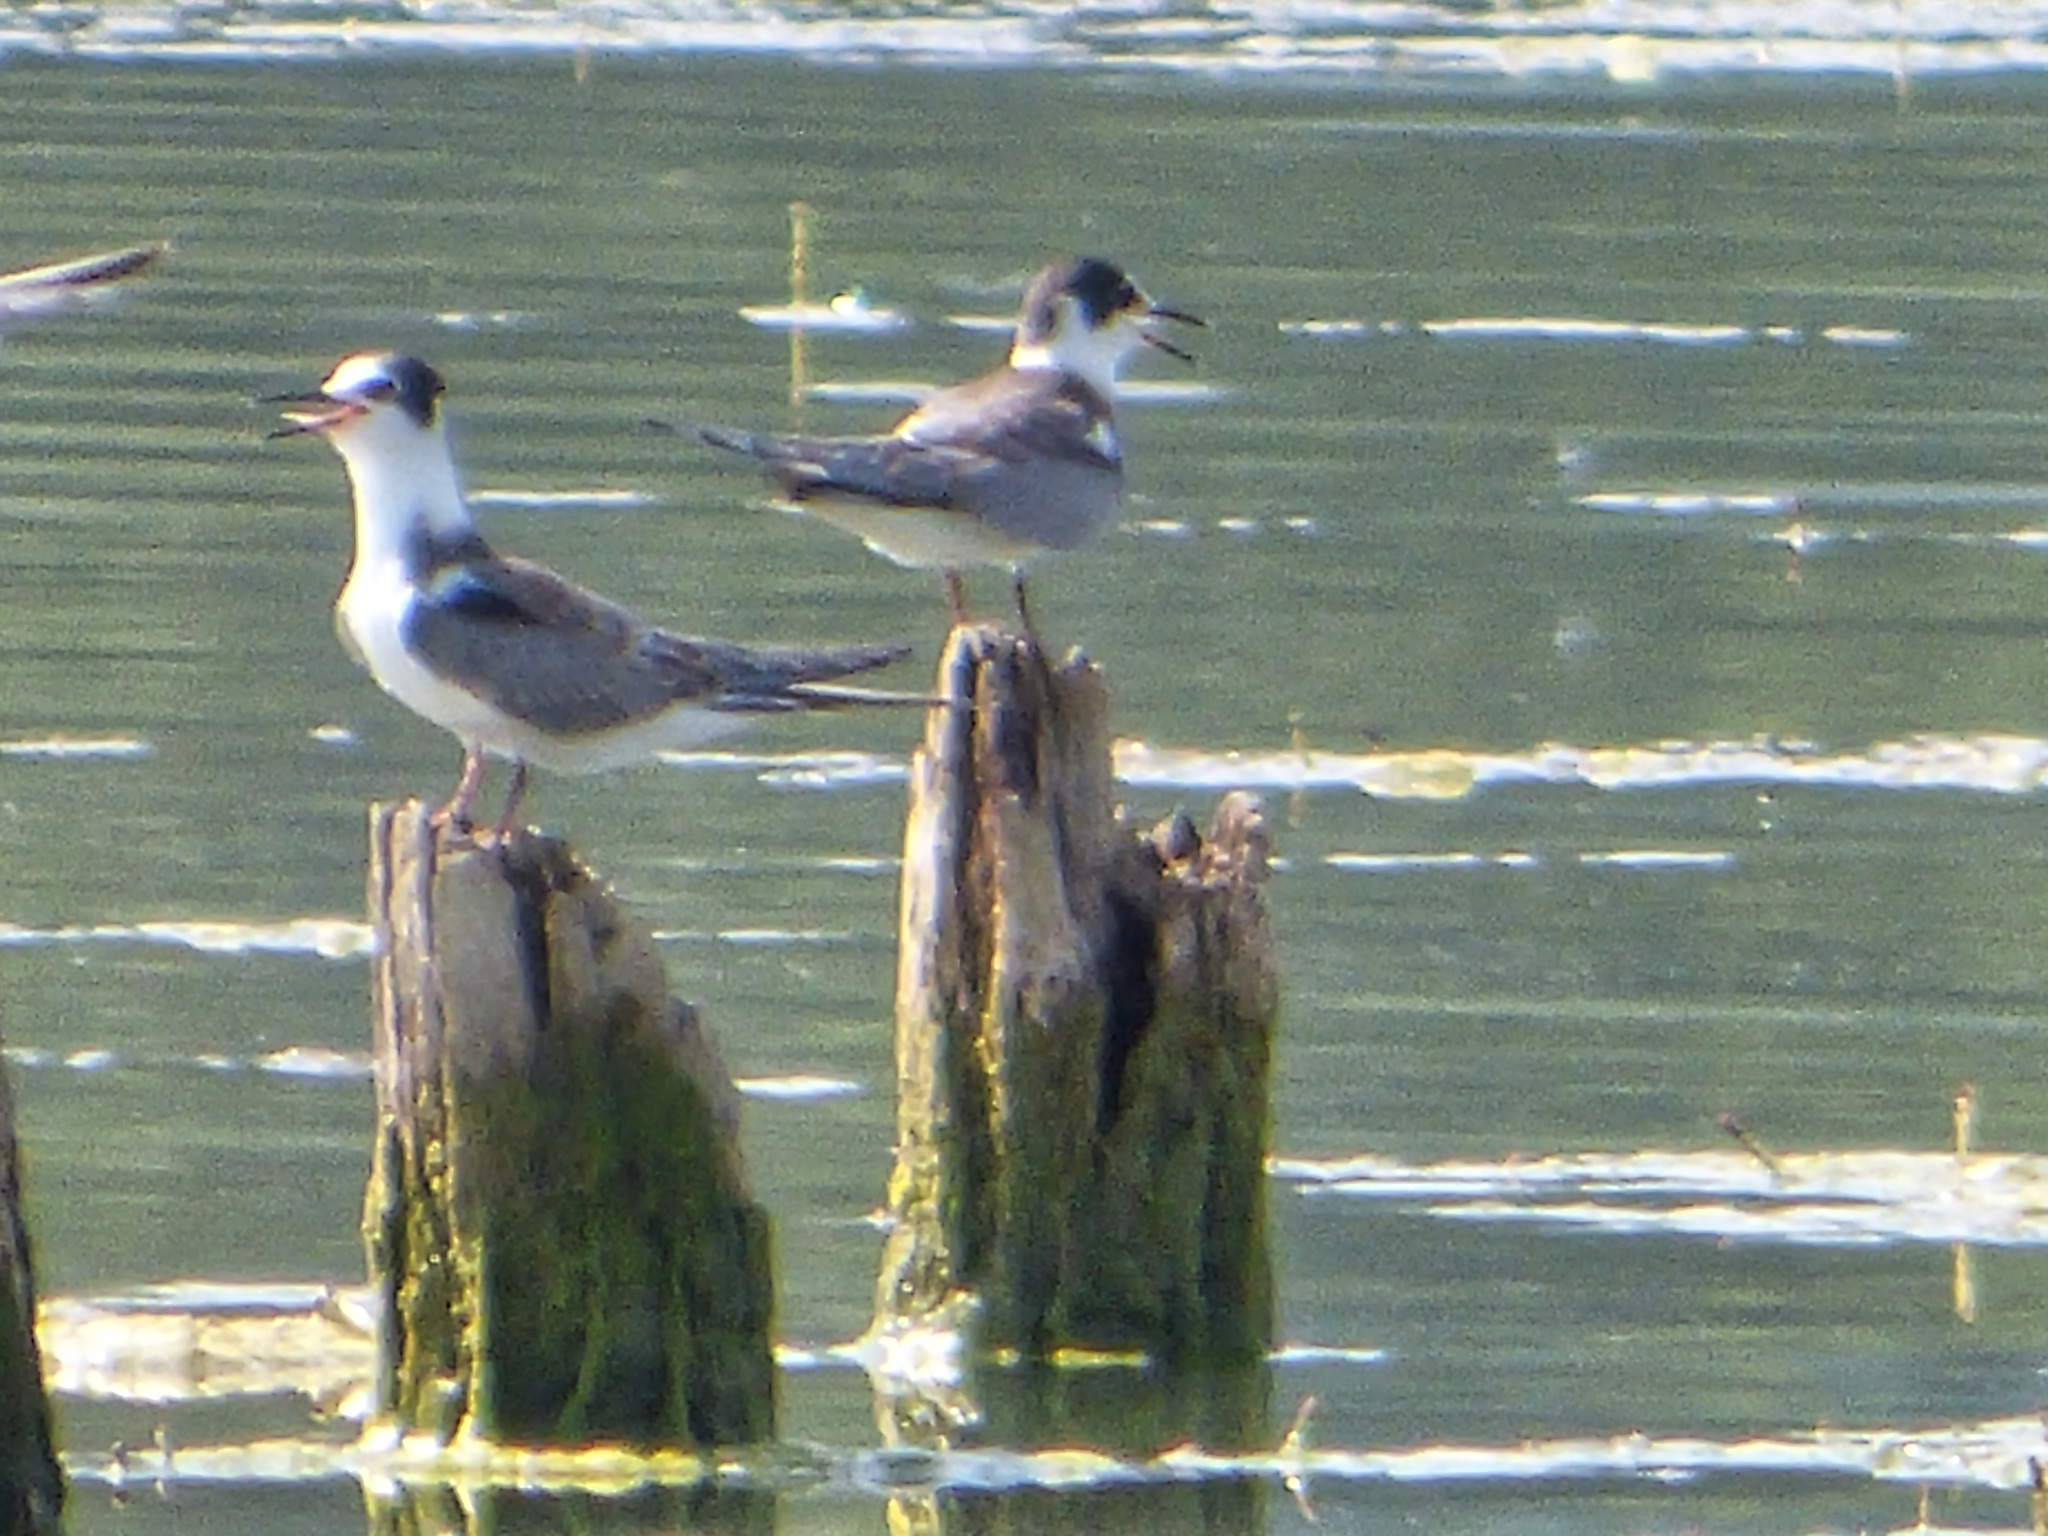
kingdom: Animalia
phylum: Chordata
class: Aves
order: Charadriiformes
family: Laridae
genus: Chlidonias
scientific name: Chlidonias niger
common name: Black tern
